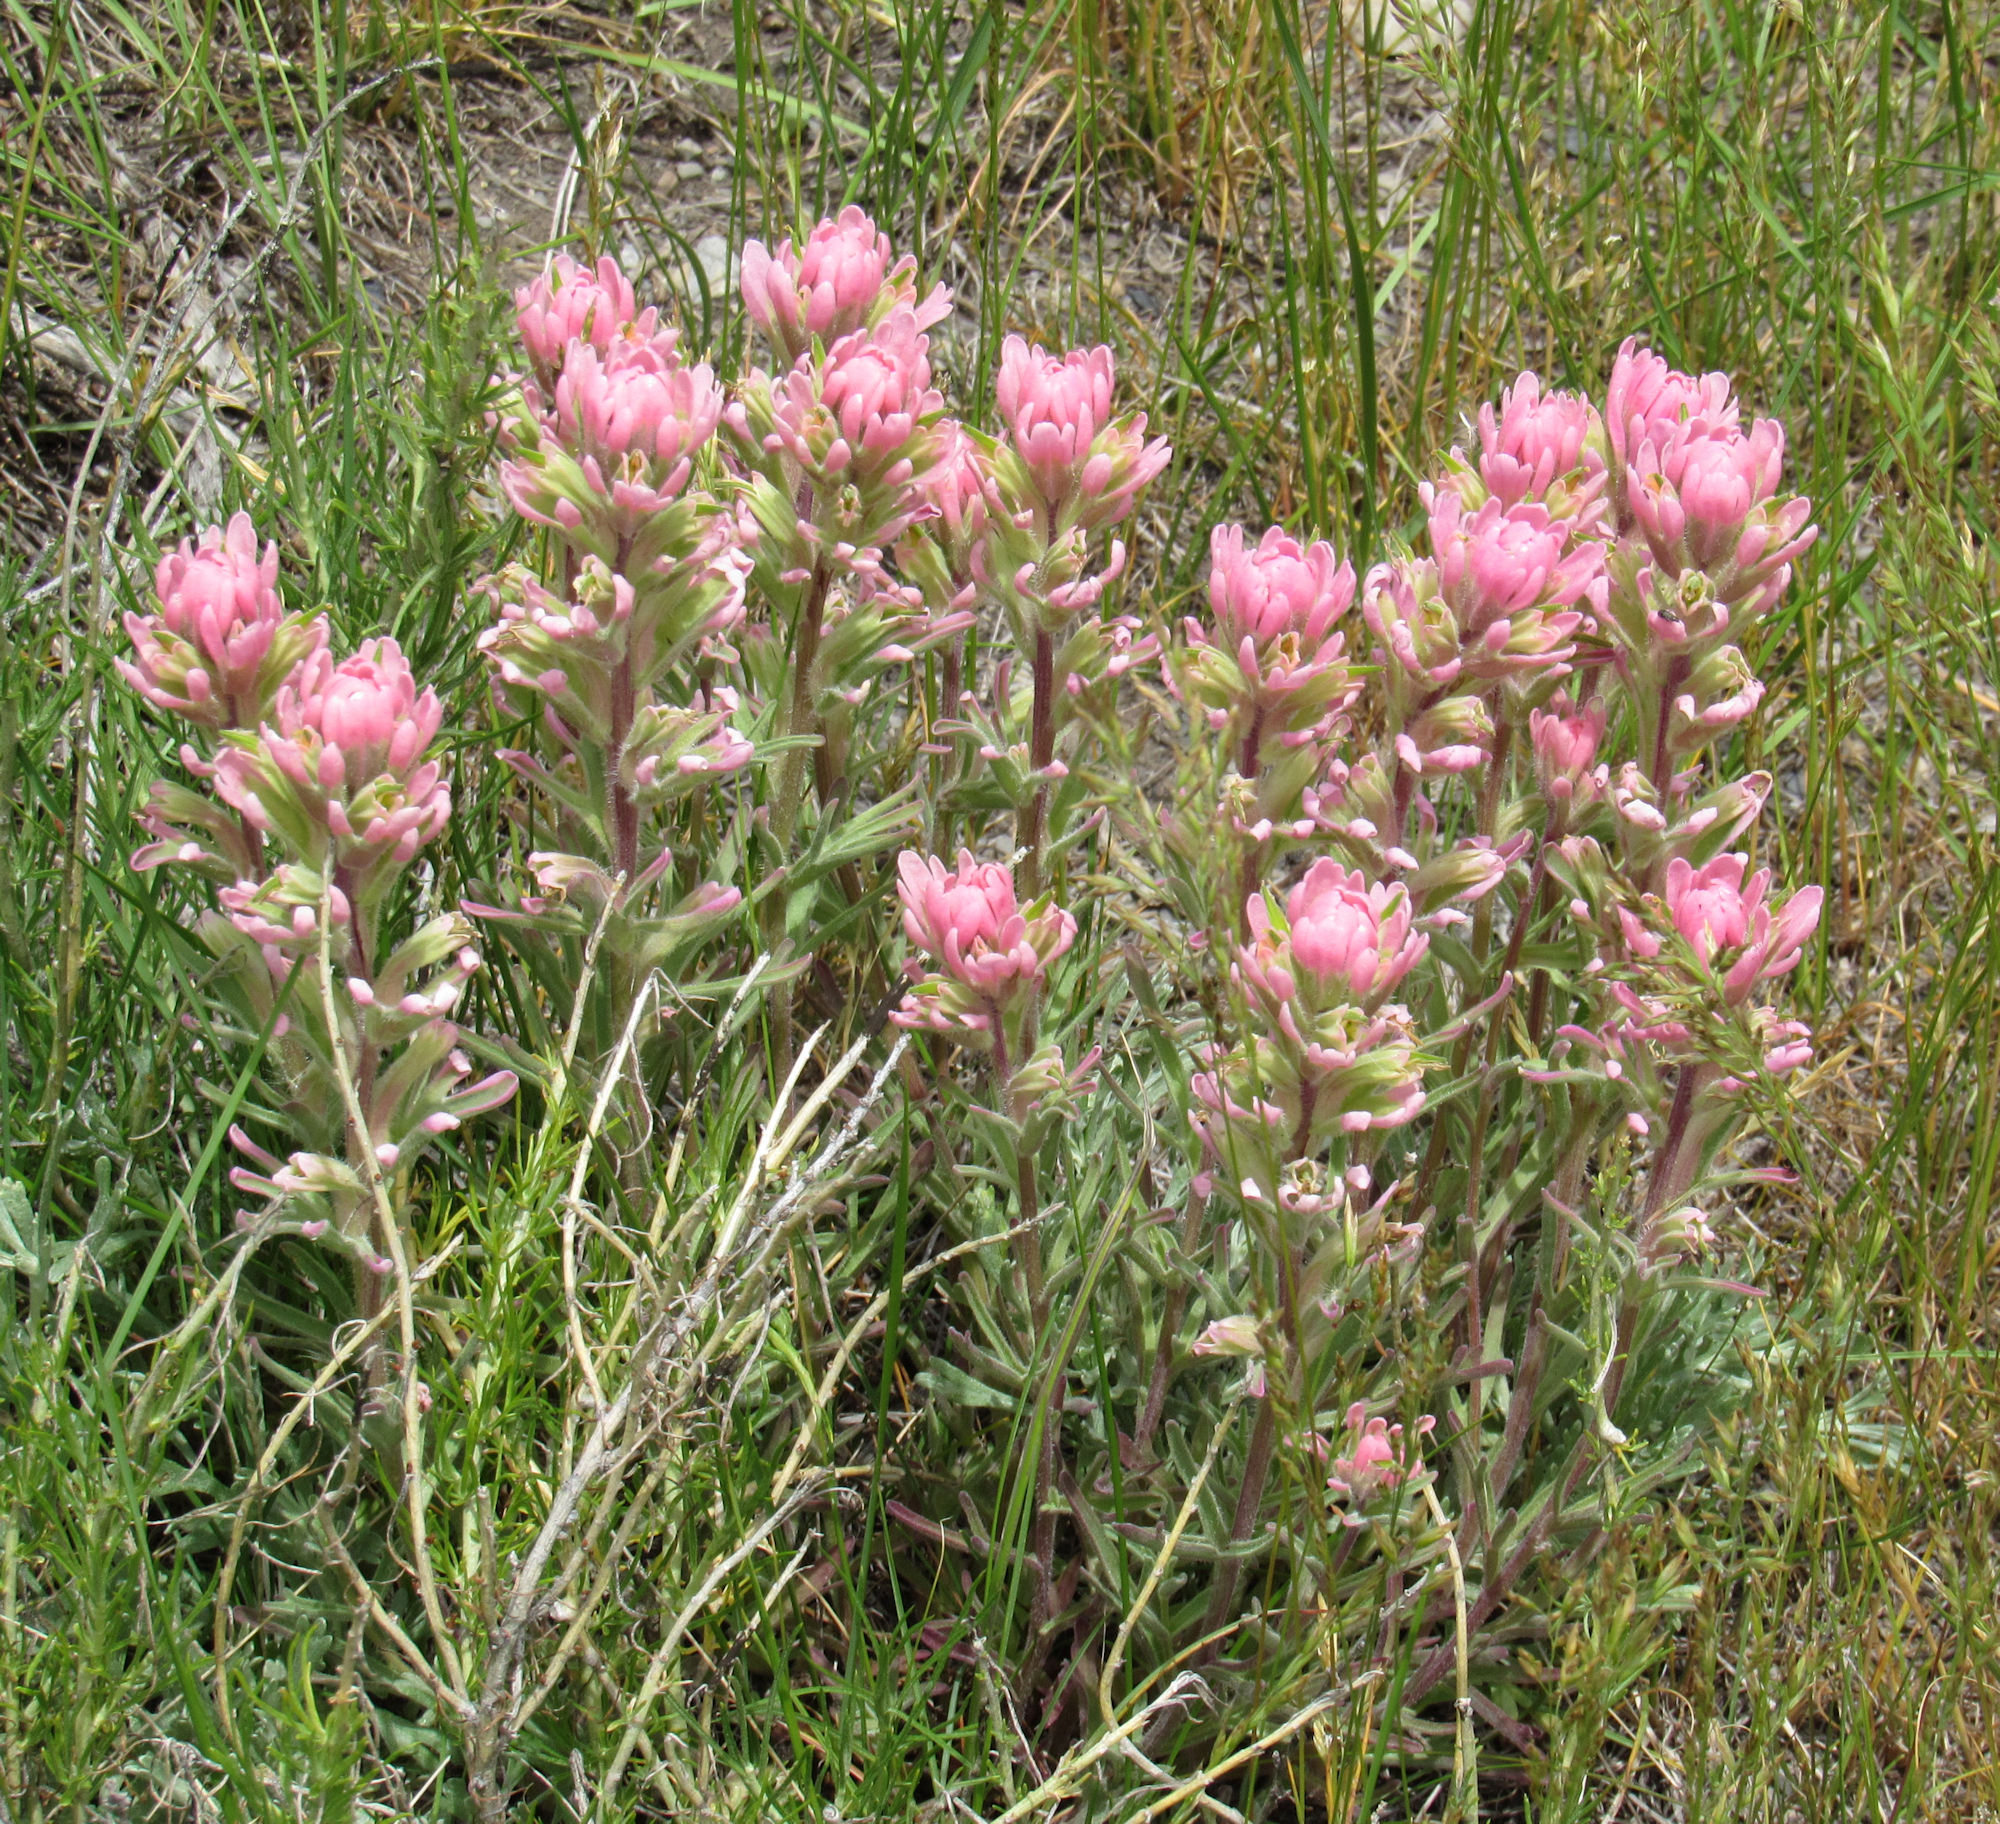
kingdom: Plantae
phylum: Tracheophyta
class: Magnoliopsida
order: Lamiales
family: Orobanchaceae
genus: Castilleja
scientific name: Castilleja angustifolia
